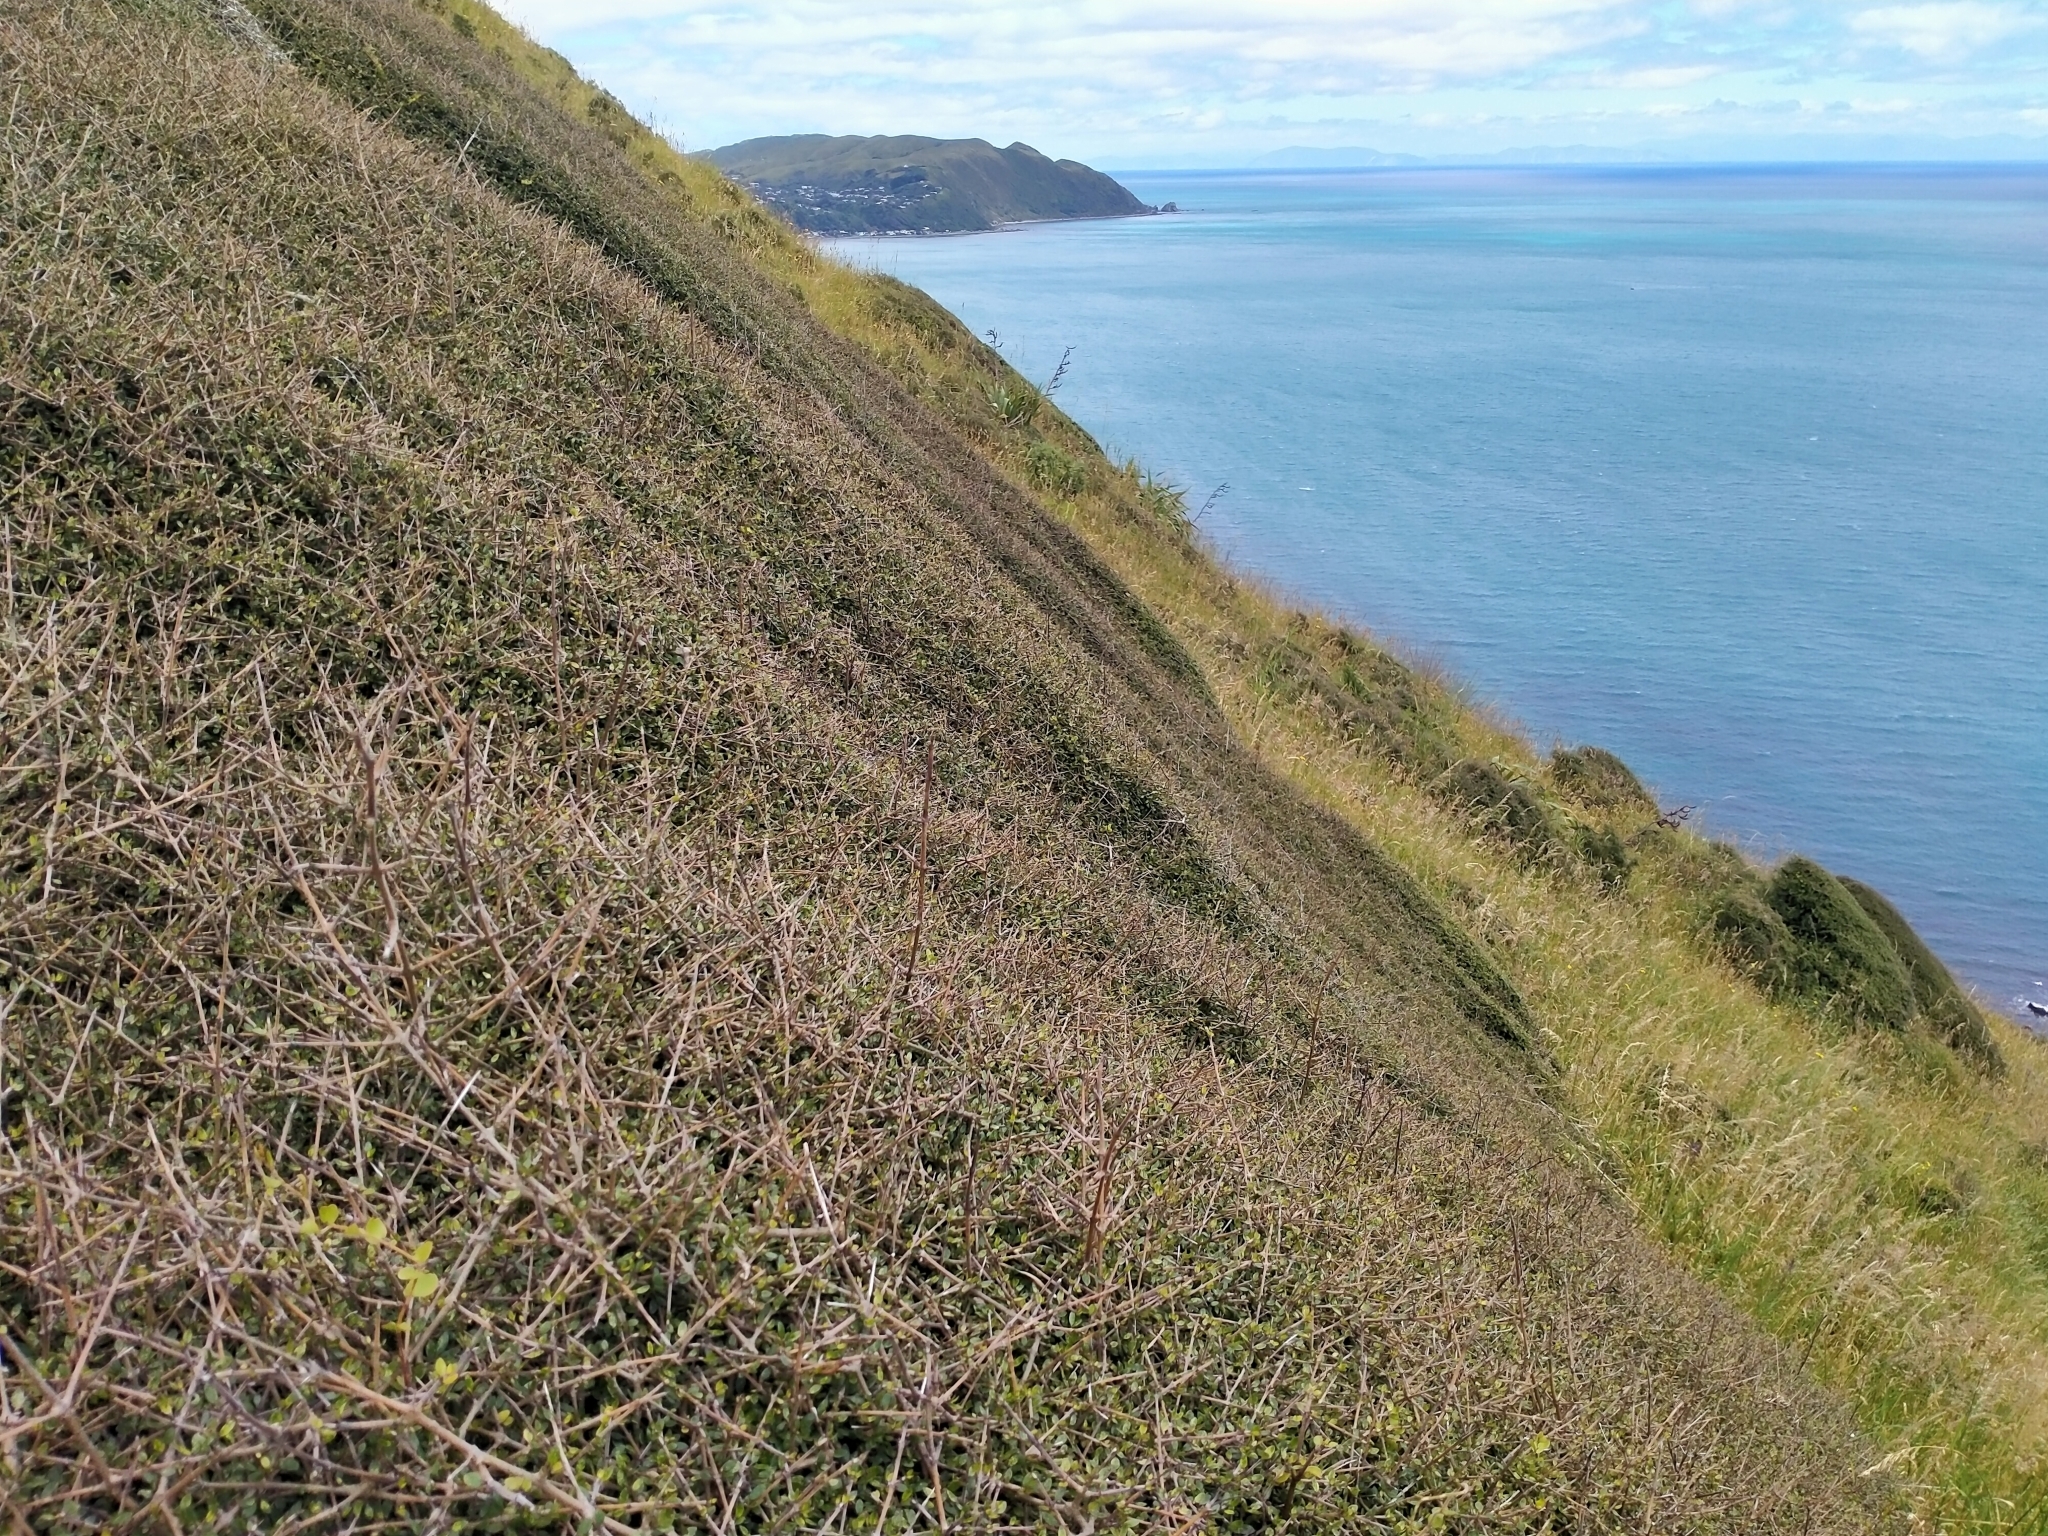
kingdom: Plantae
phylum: Tracheophyta
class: Magnoliopsida
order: Gentianales
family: Rubiaceae
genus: Coprosma
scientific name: Coprosma propinqua
